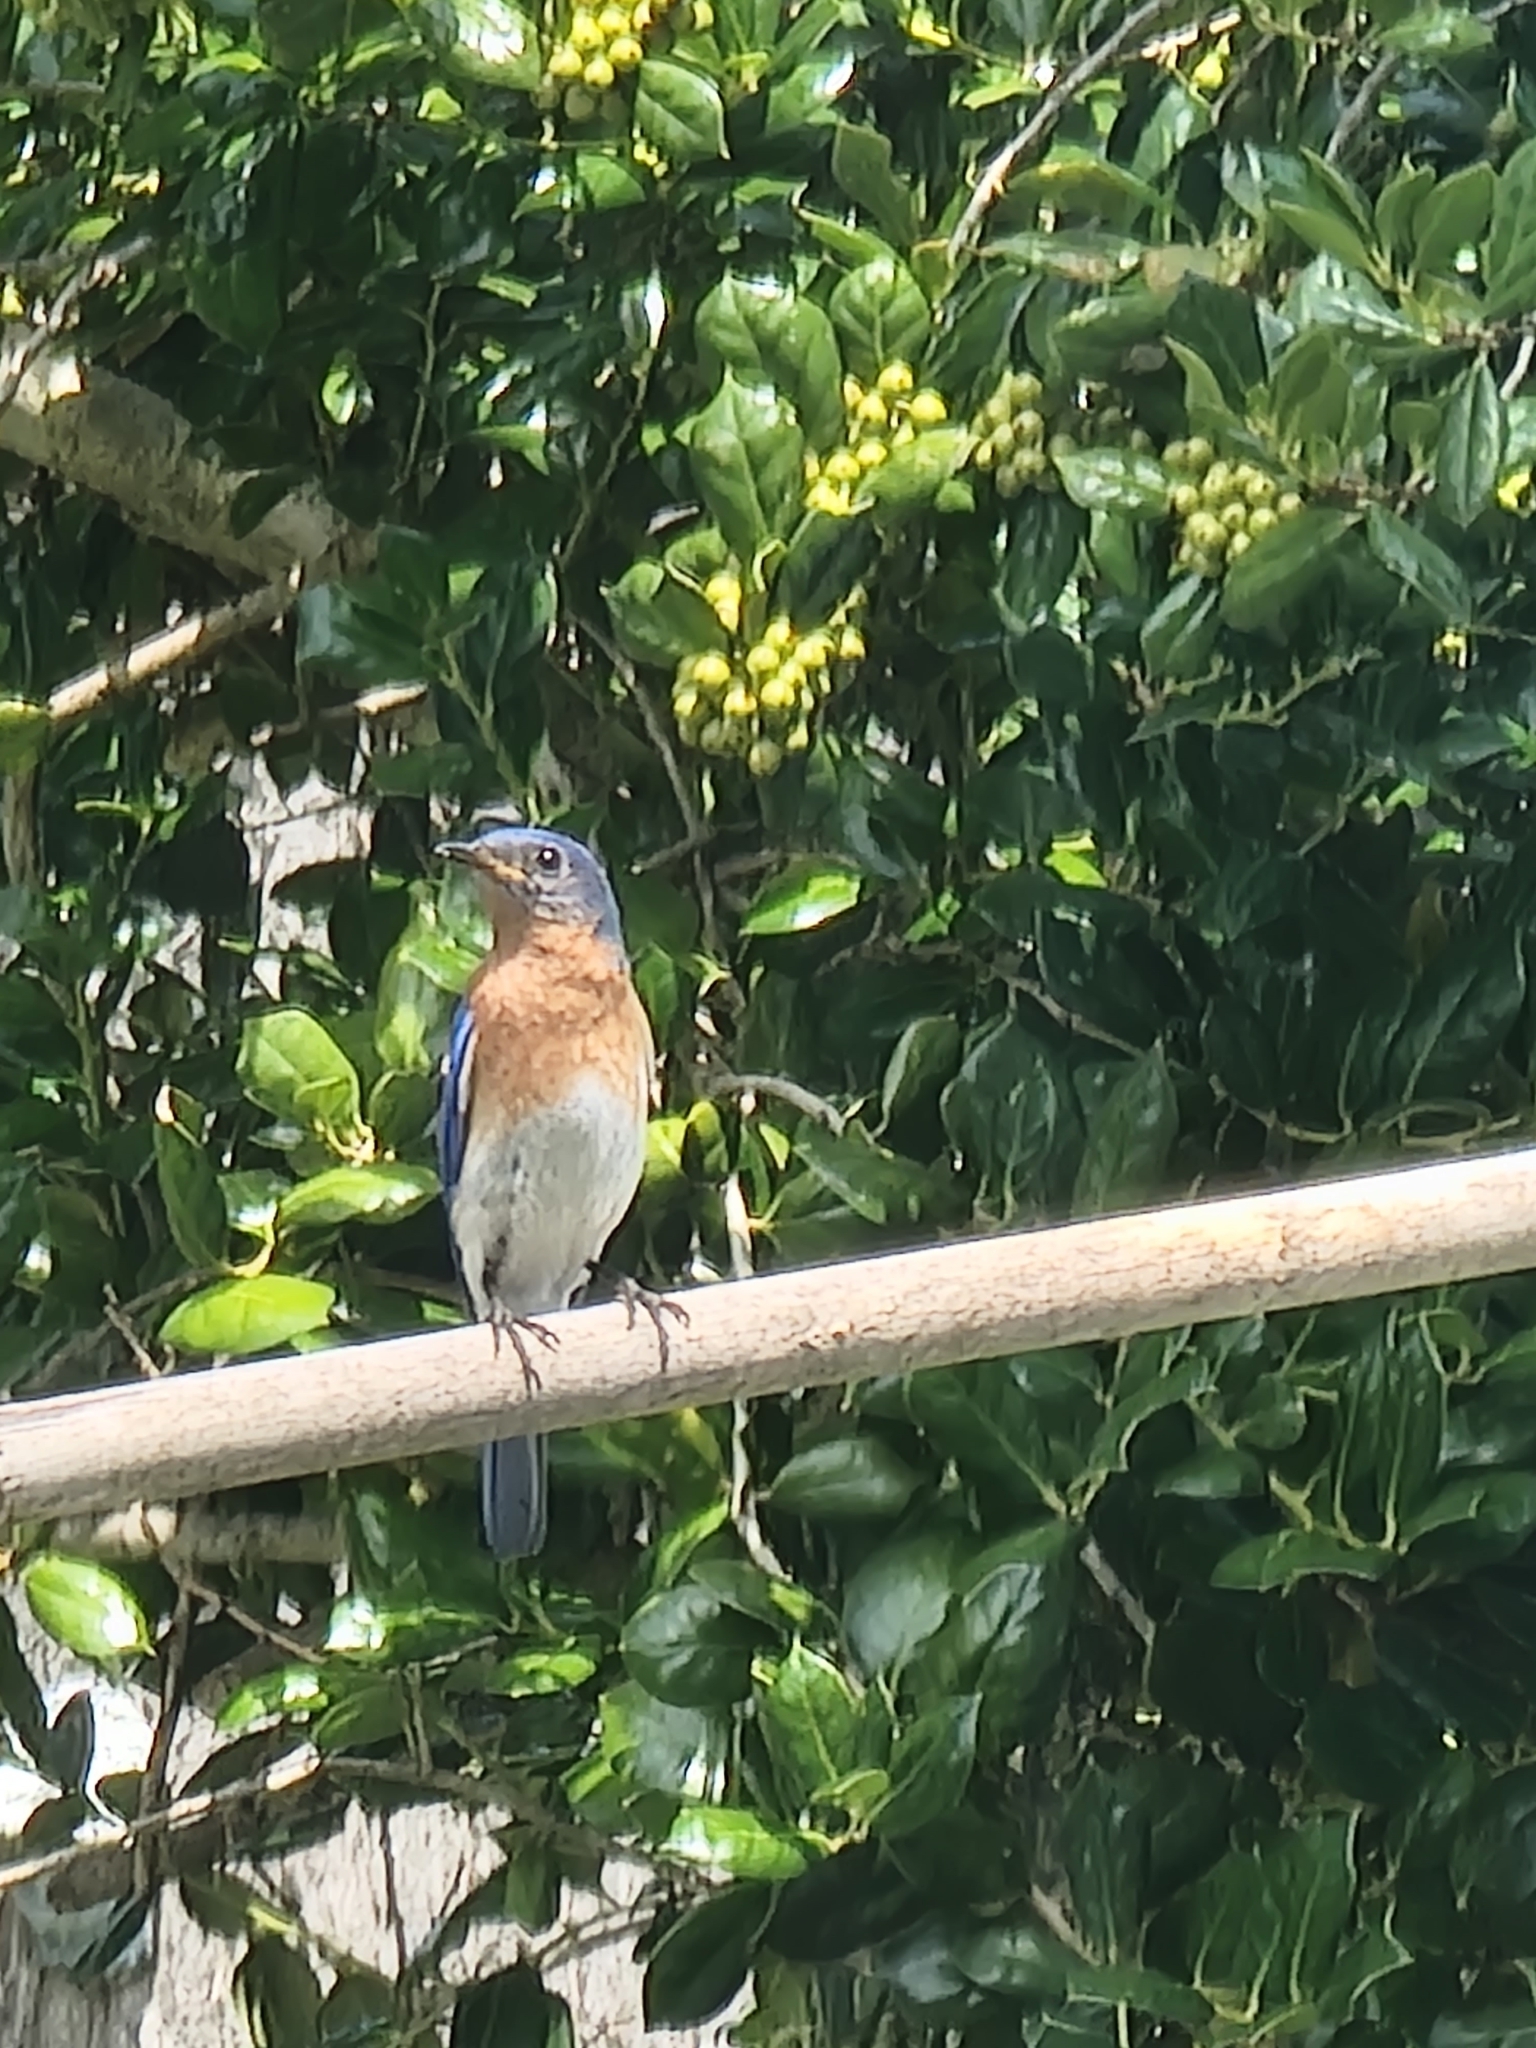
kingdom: Animalia
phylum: Chordata
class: Aves
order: Passeriformes
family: Turdidae
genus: Sialia
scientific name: Sialia sialis
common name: Eastern bluebird
